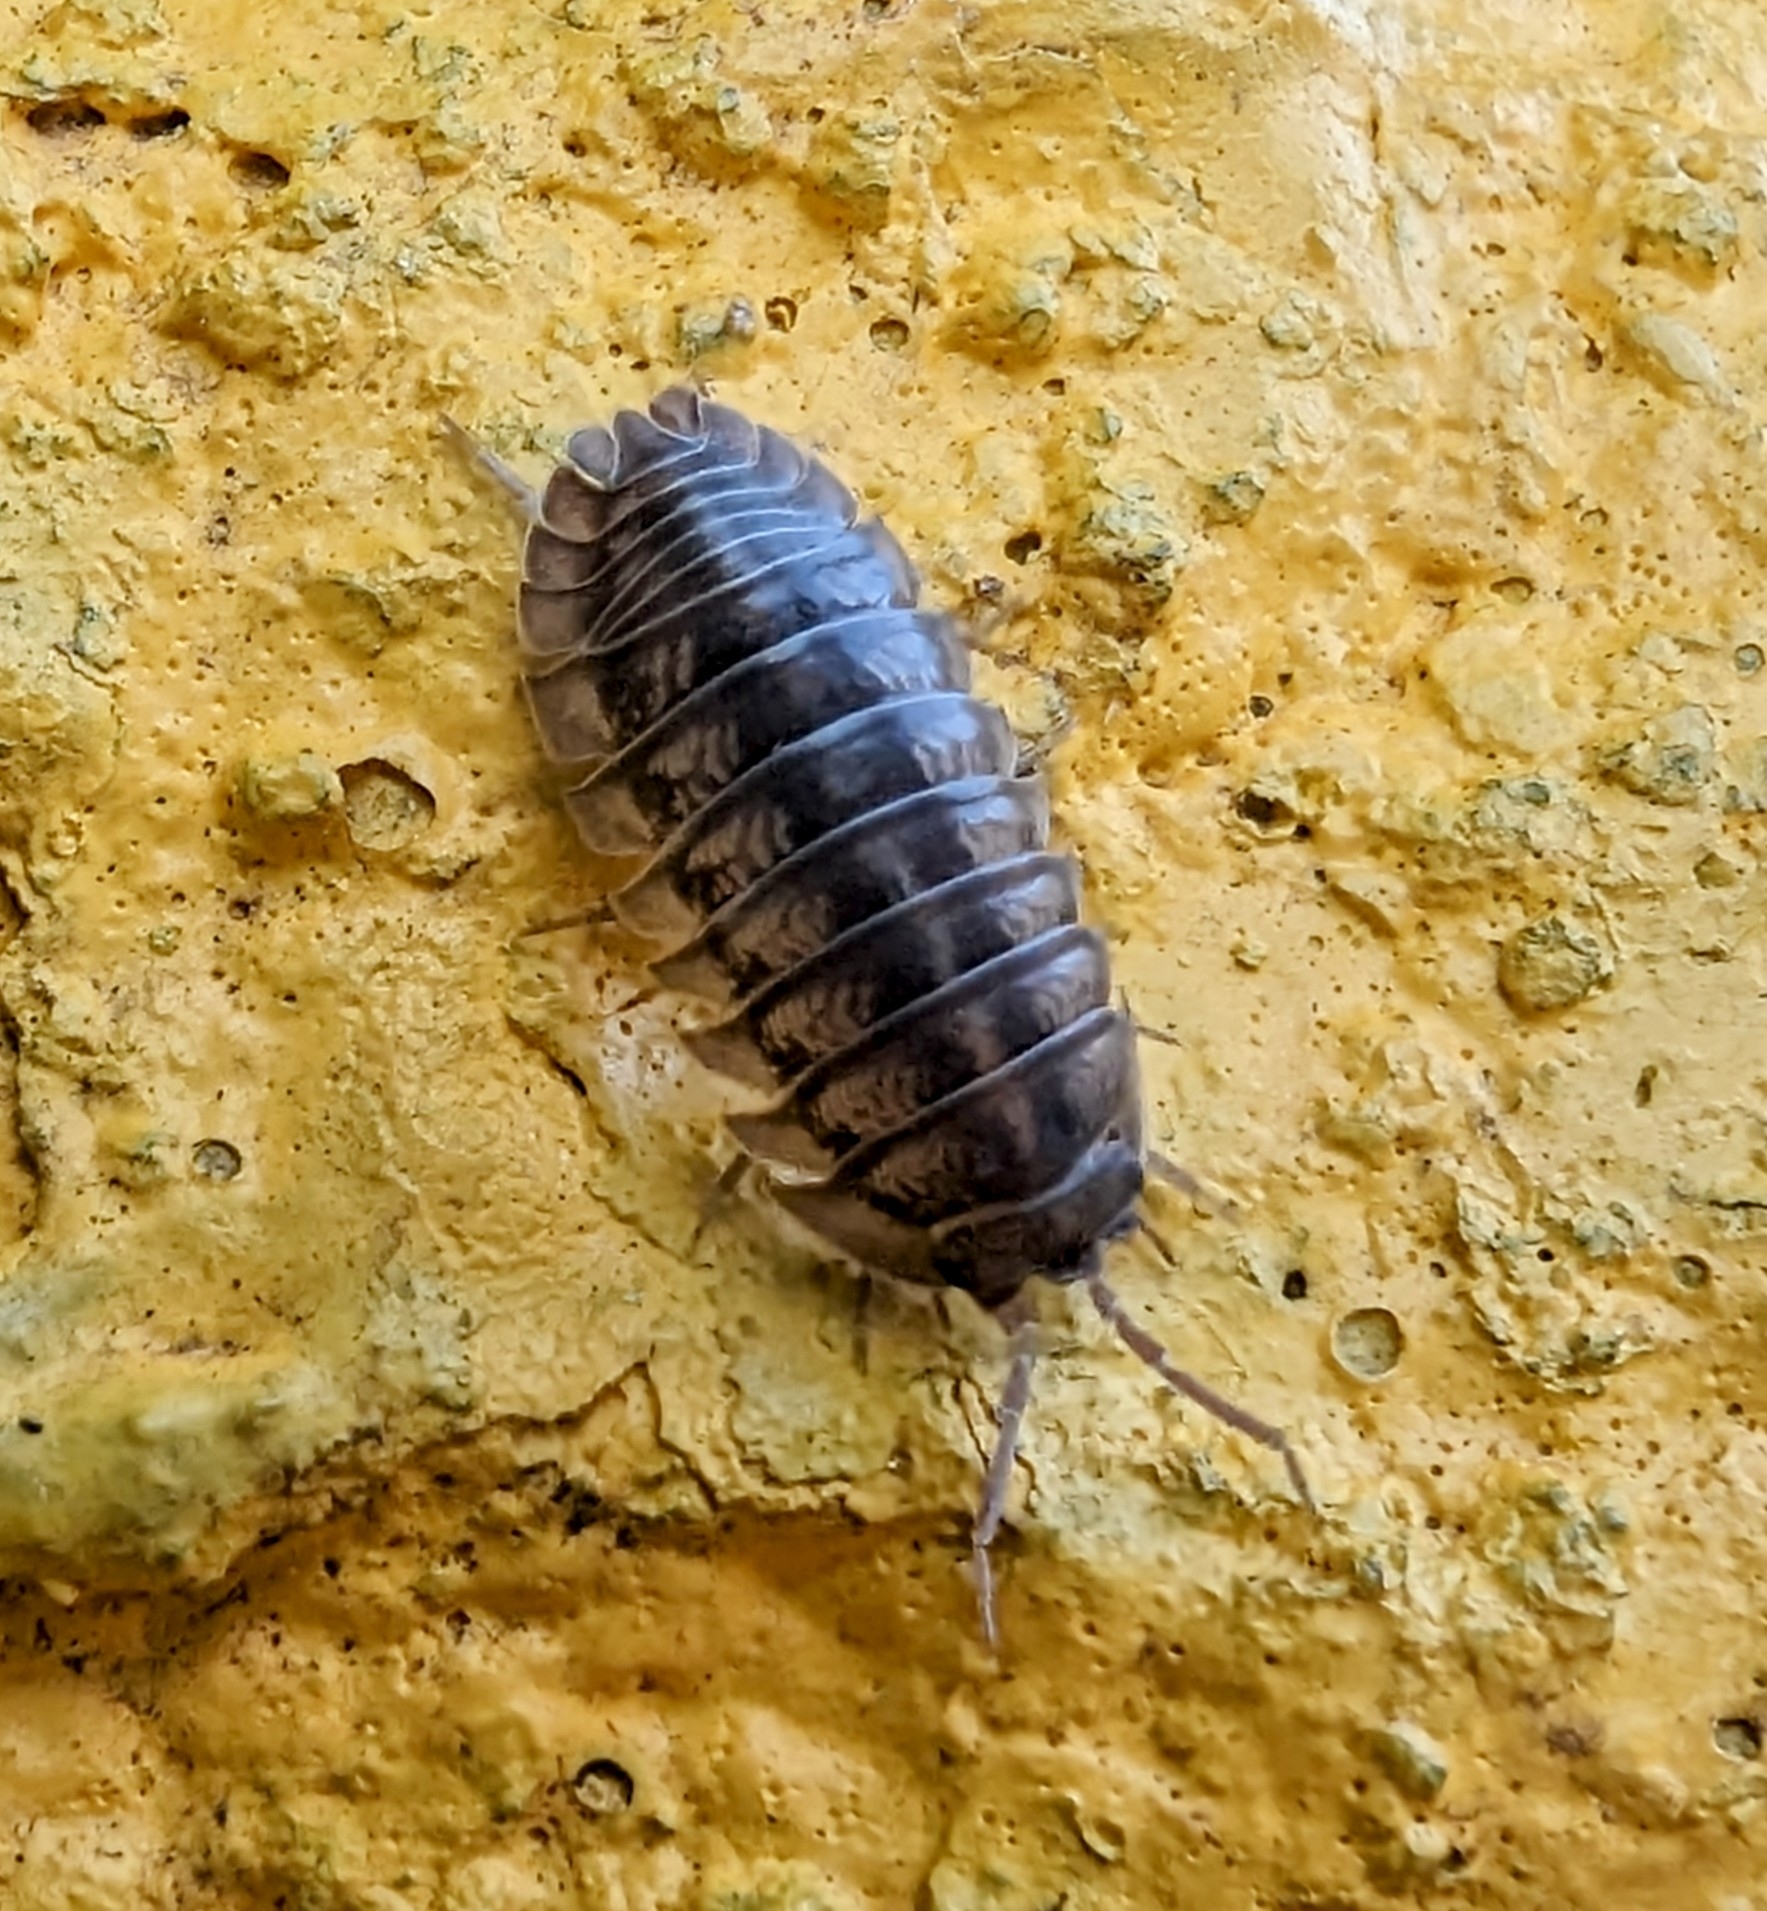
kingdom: Animalia
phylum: Arthropoda
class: Malacostraca
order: Isopoda
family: Armadillidiidae
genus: Armadillidium
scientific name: Armadillidium nasatum
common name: Isopod
